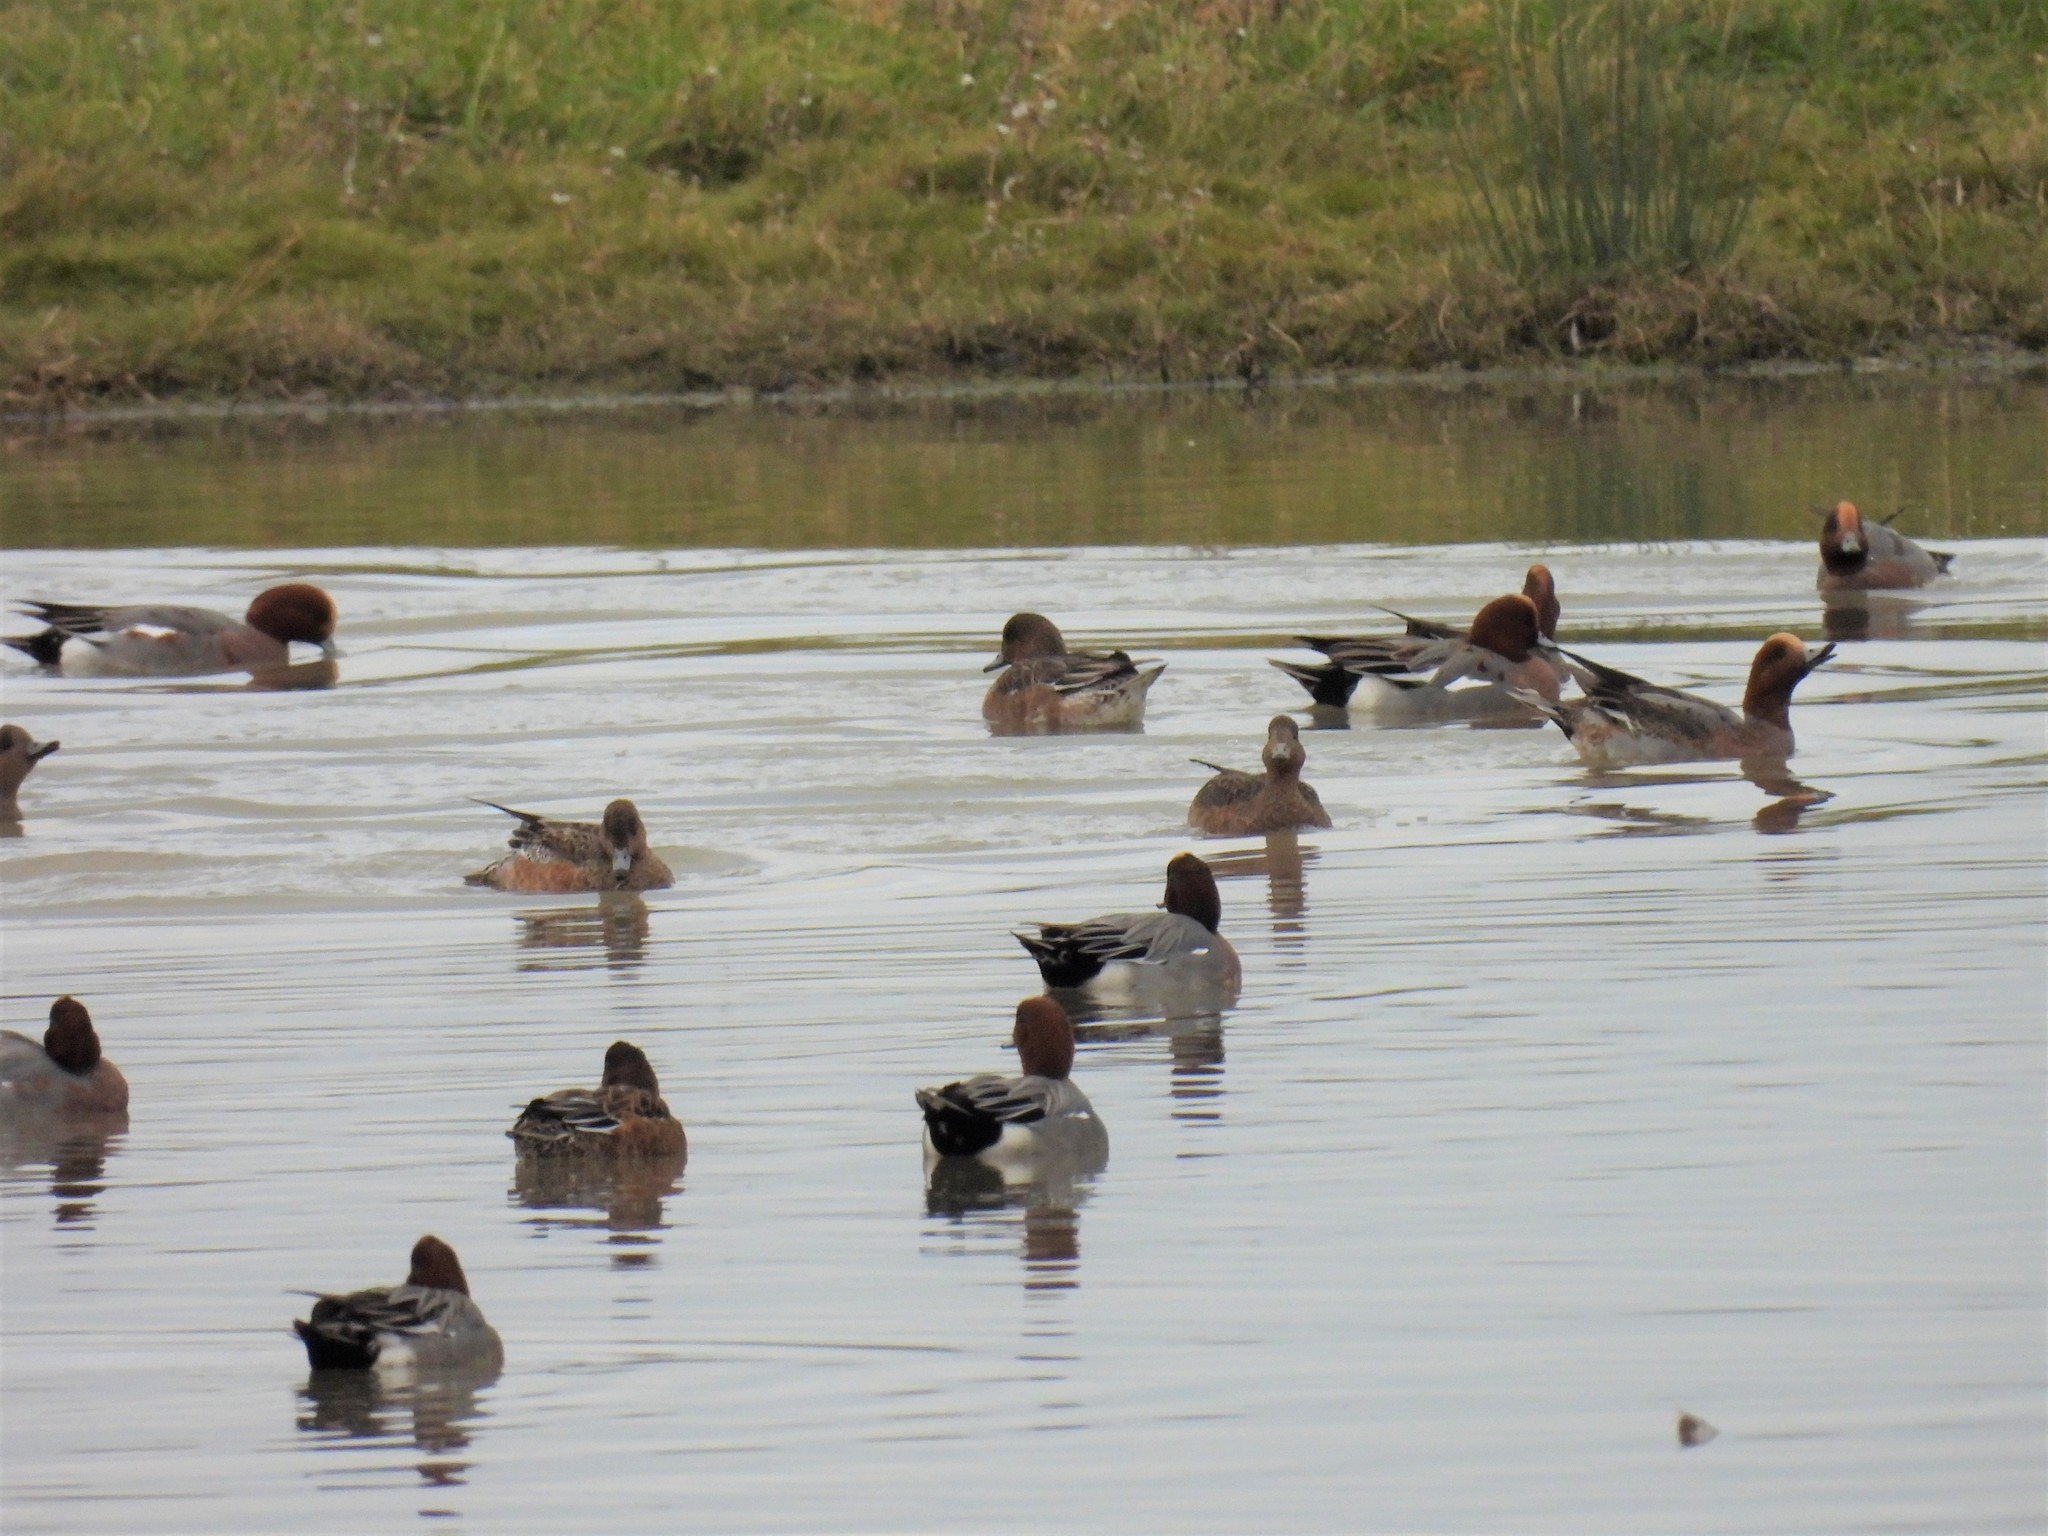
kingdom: Animalia
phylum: Chordata
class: Aves
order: Anseriformes
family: Anatidae
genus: Mareca
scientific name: Mareca penelope
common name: Eurasian wigeon
